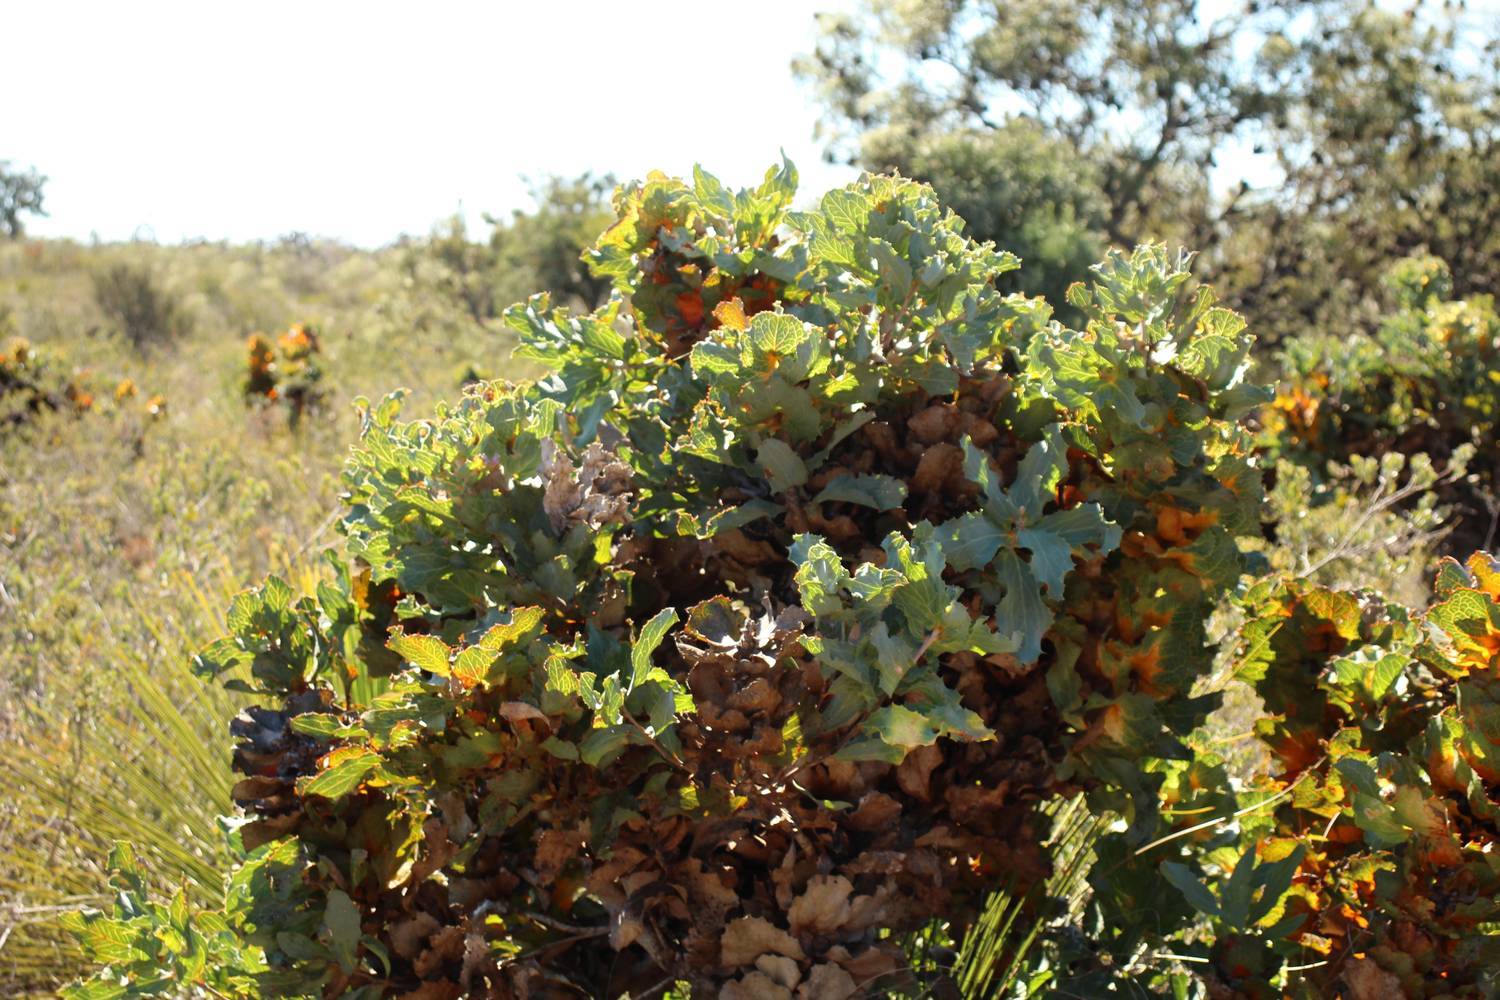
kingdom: Plantae
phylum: Tracheophyta
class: Magnoliopsida
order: Proteales
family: Proteaceae
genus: Hakea
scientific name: Hakea victoria
